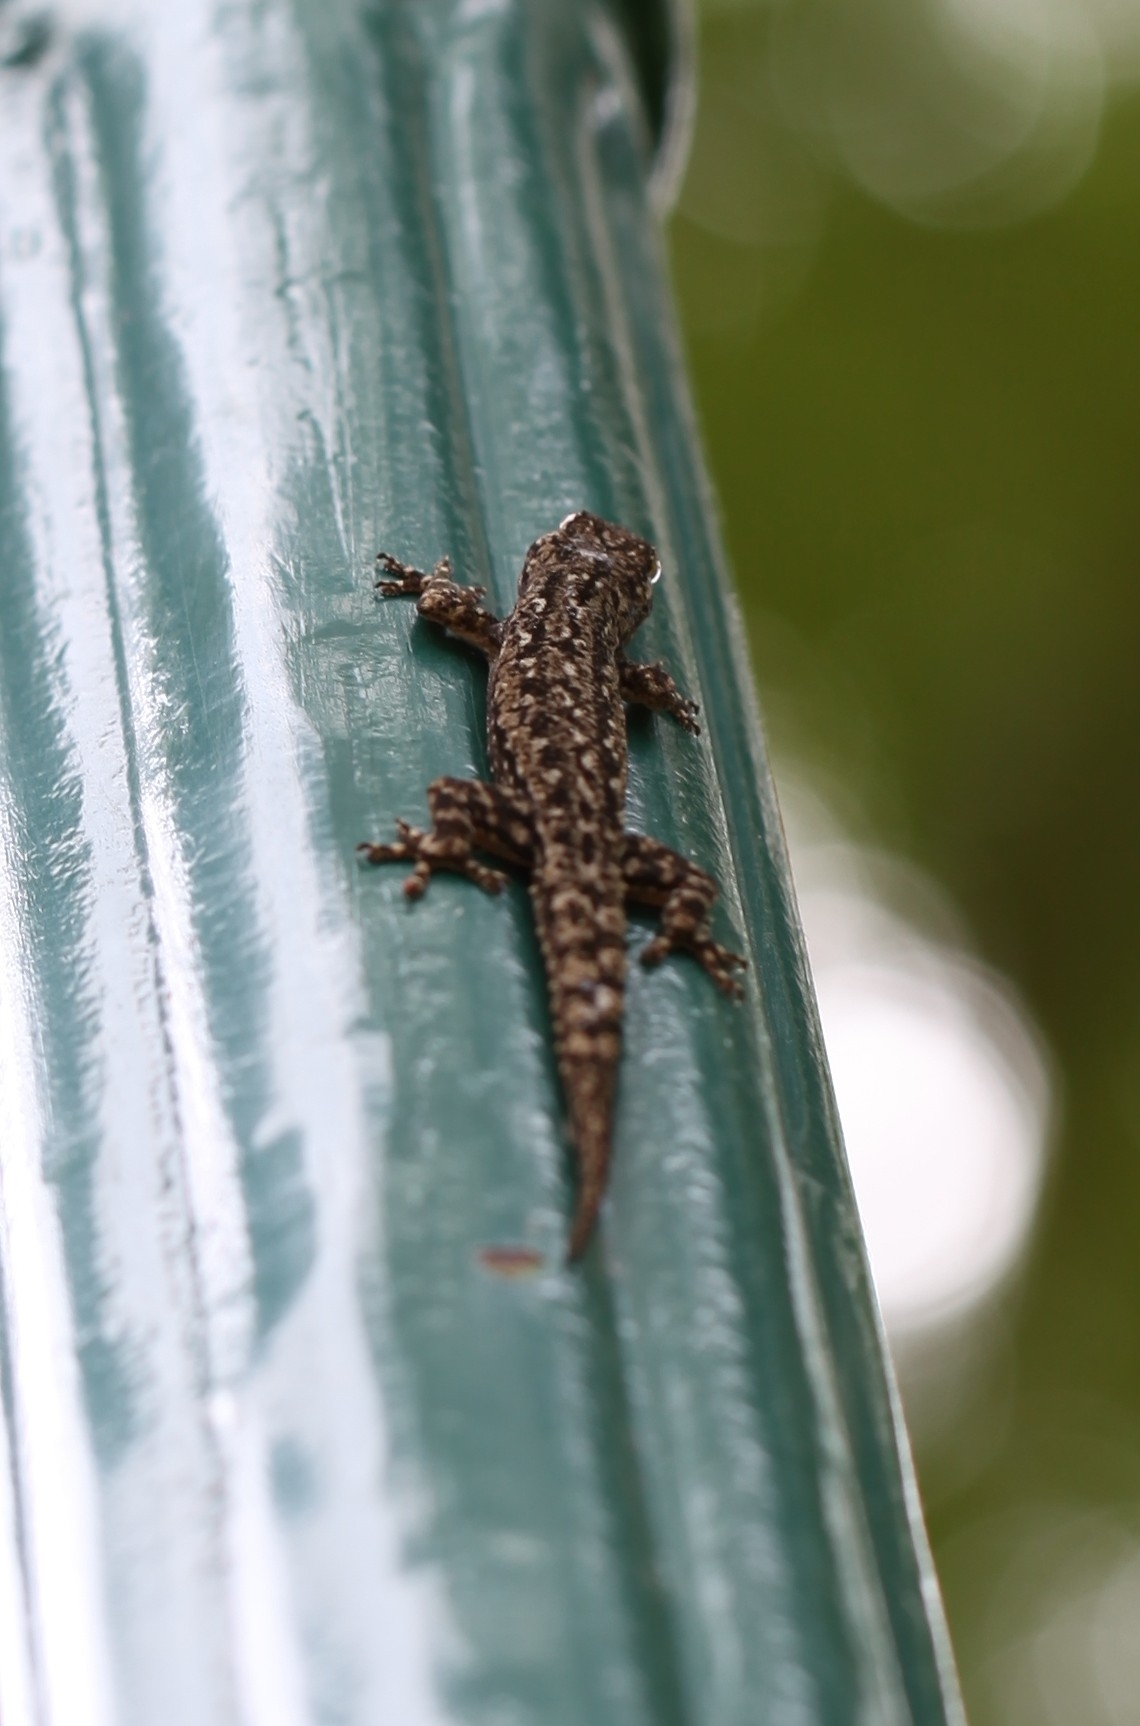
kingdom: Animalia
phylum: Chordata
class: Squamata
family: Gekkonidae
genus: Hemidactylus
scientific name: Hemidactylus frenatus
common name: Common house gecko
